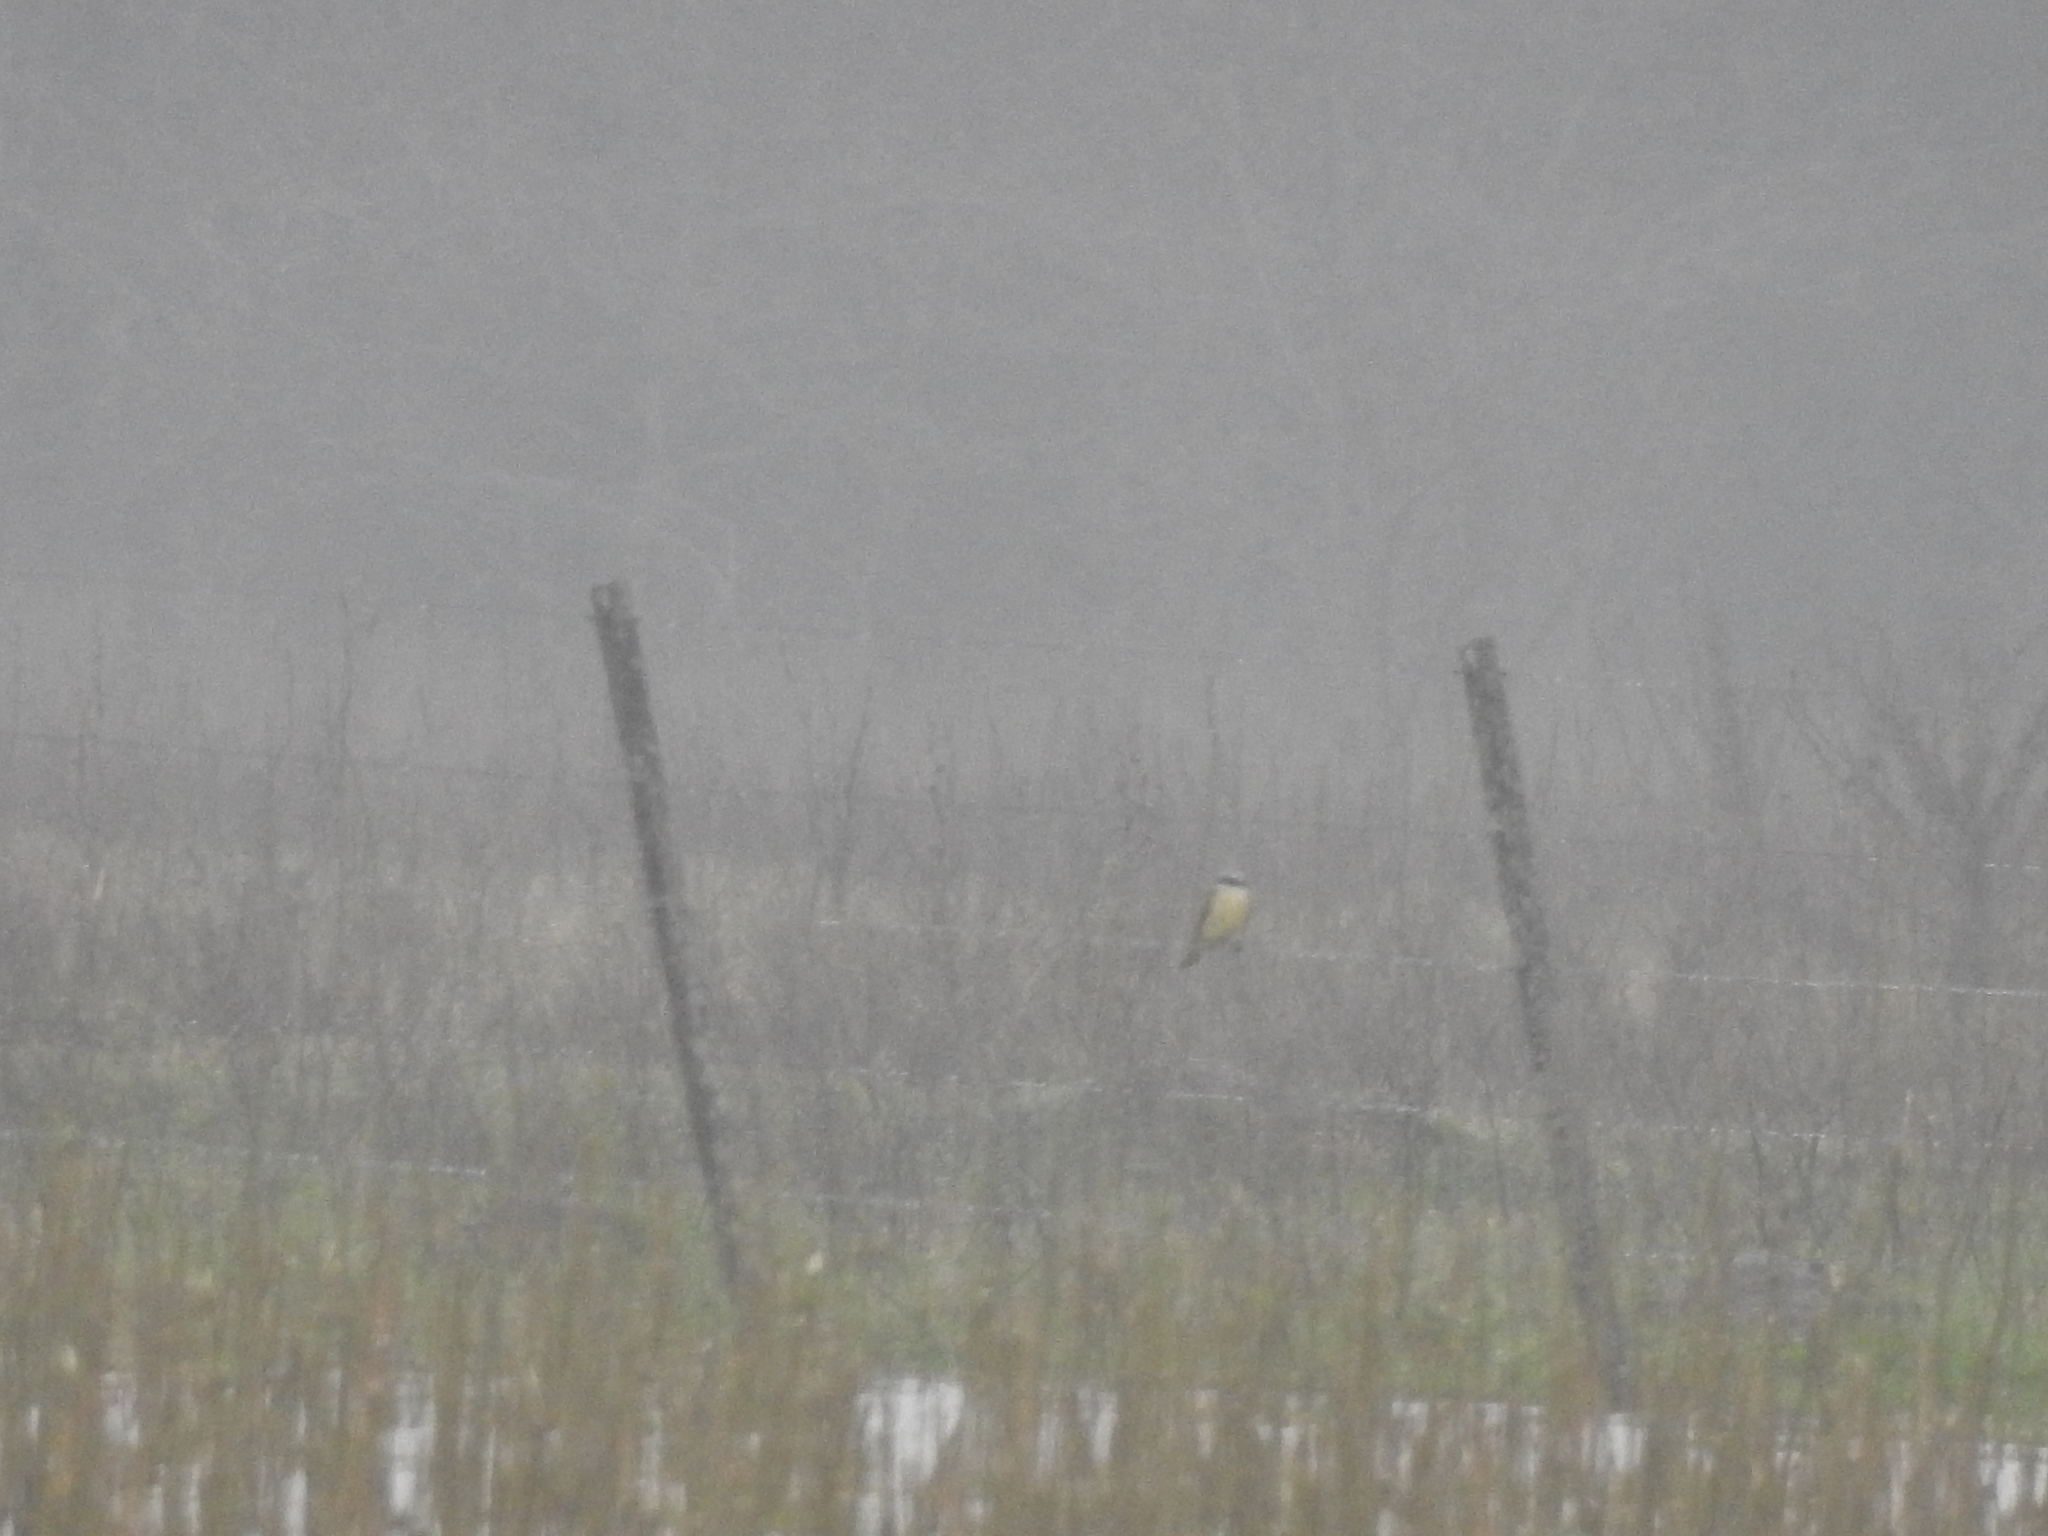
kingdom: Animalia
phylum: Chordata
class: Aves
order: Passeriformes
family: Tyrannidae
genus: Pitangus
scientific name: Pitangus sulphuratus
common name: Great kiskadee
